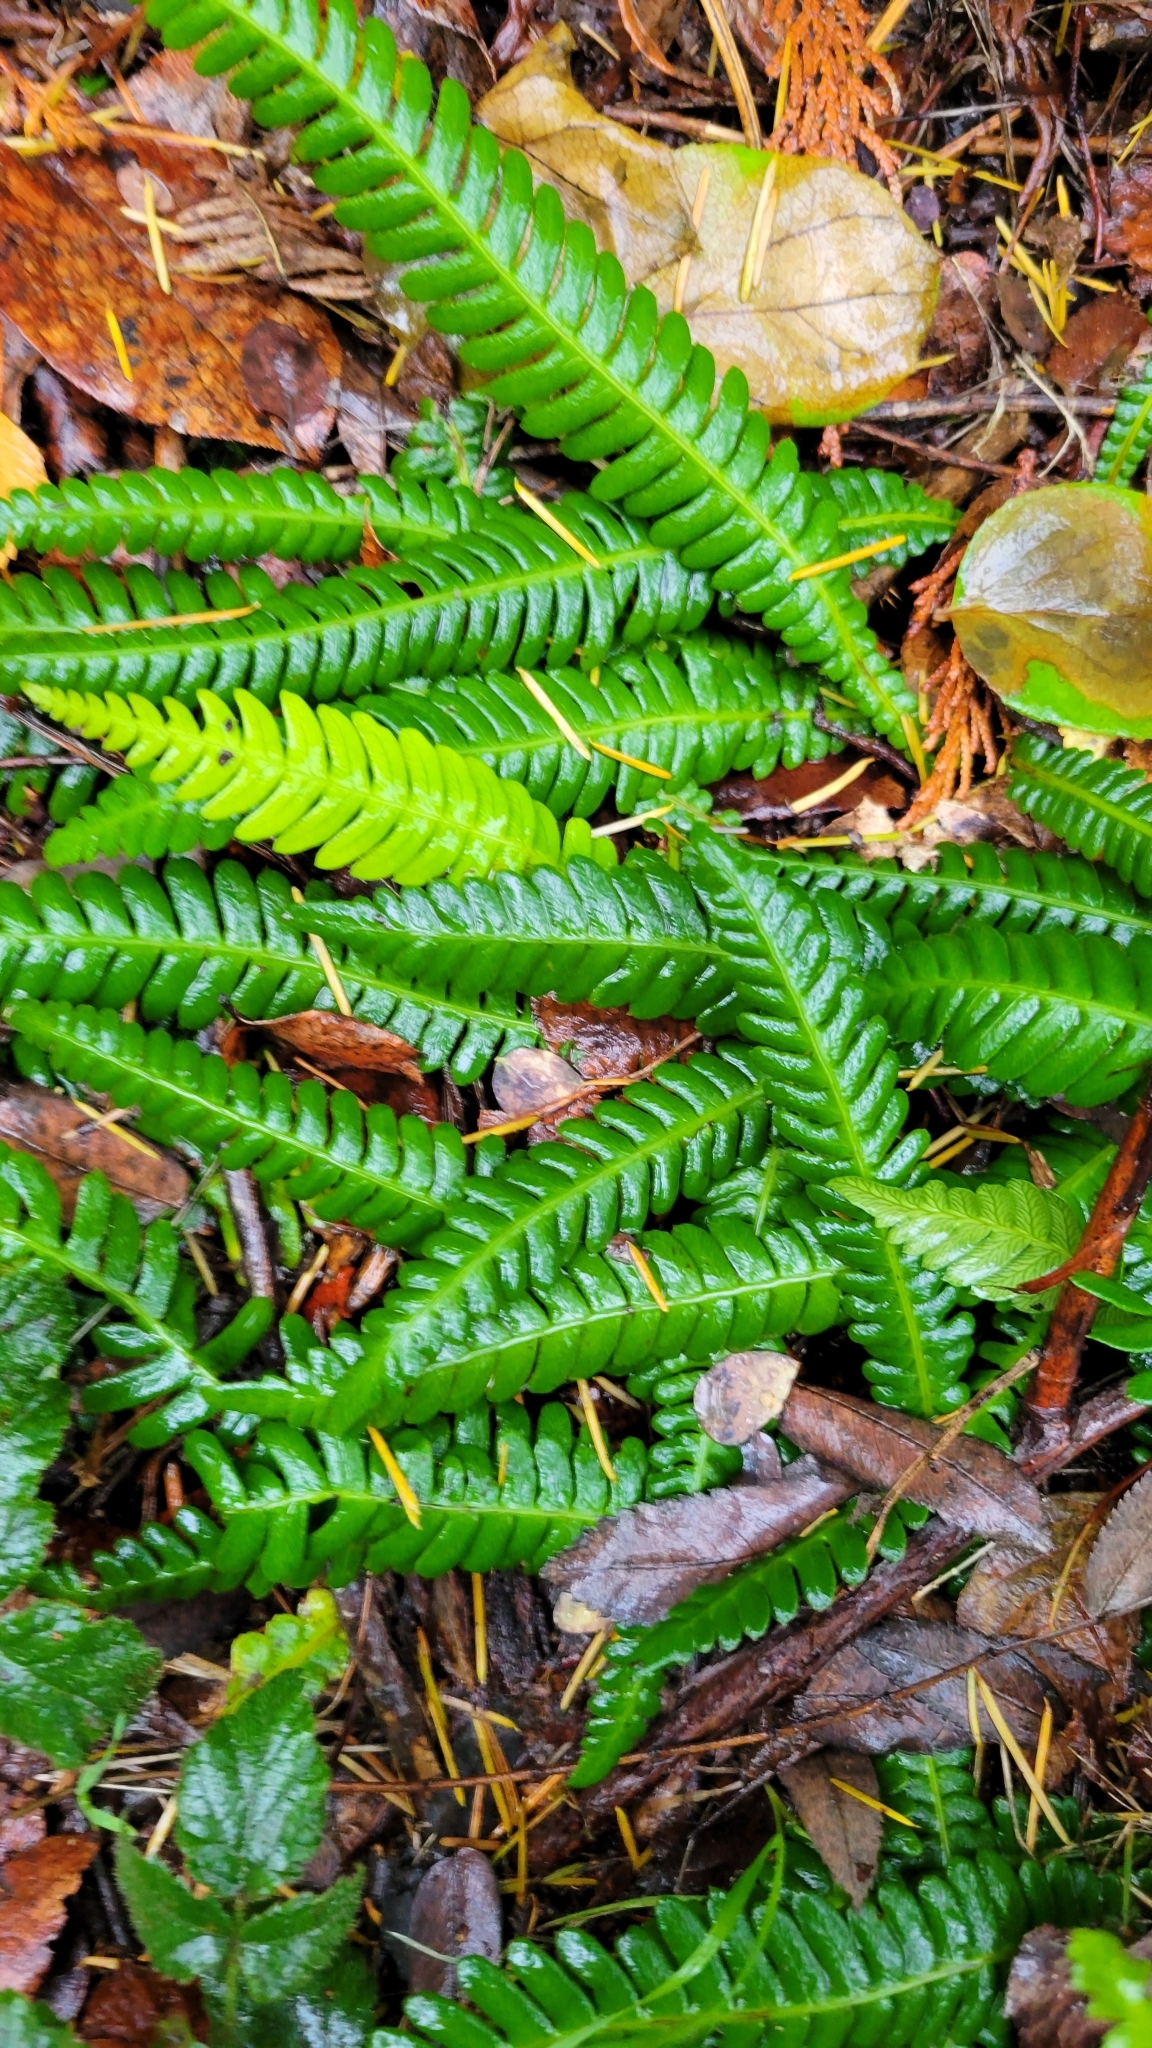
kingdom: Plantae
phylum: Tracheophyta
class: Polypodiopsida
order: Polypodiales
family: Blechnaceae
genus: Struthiopteris
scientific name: Struthiopteris spicant
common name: Deer fern
